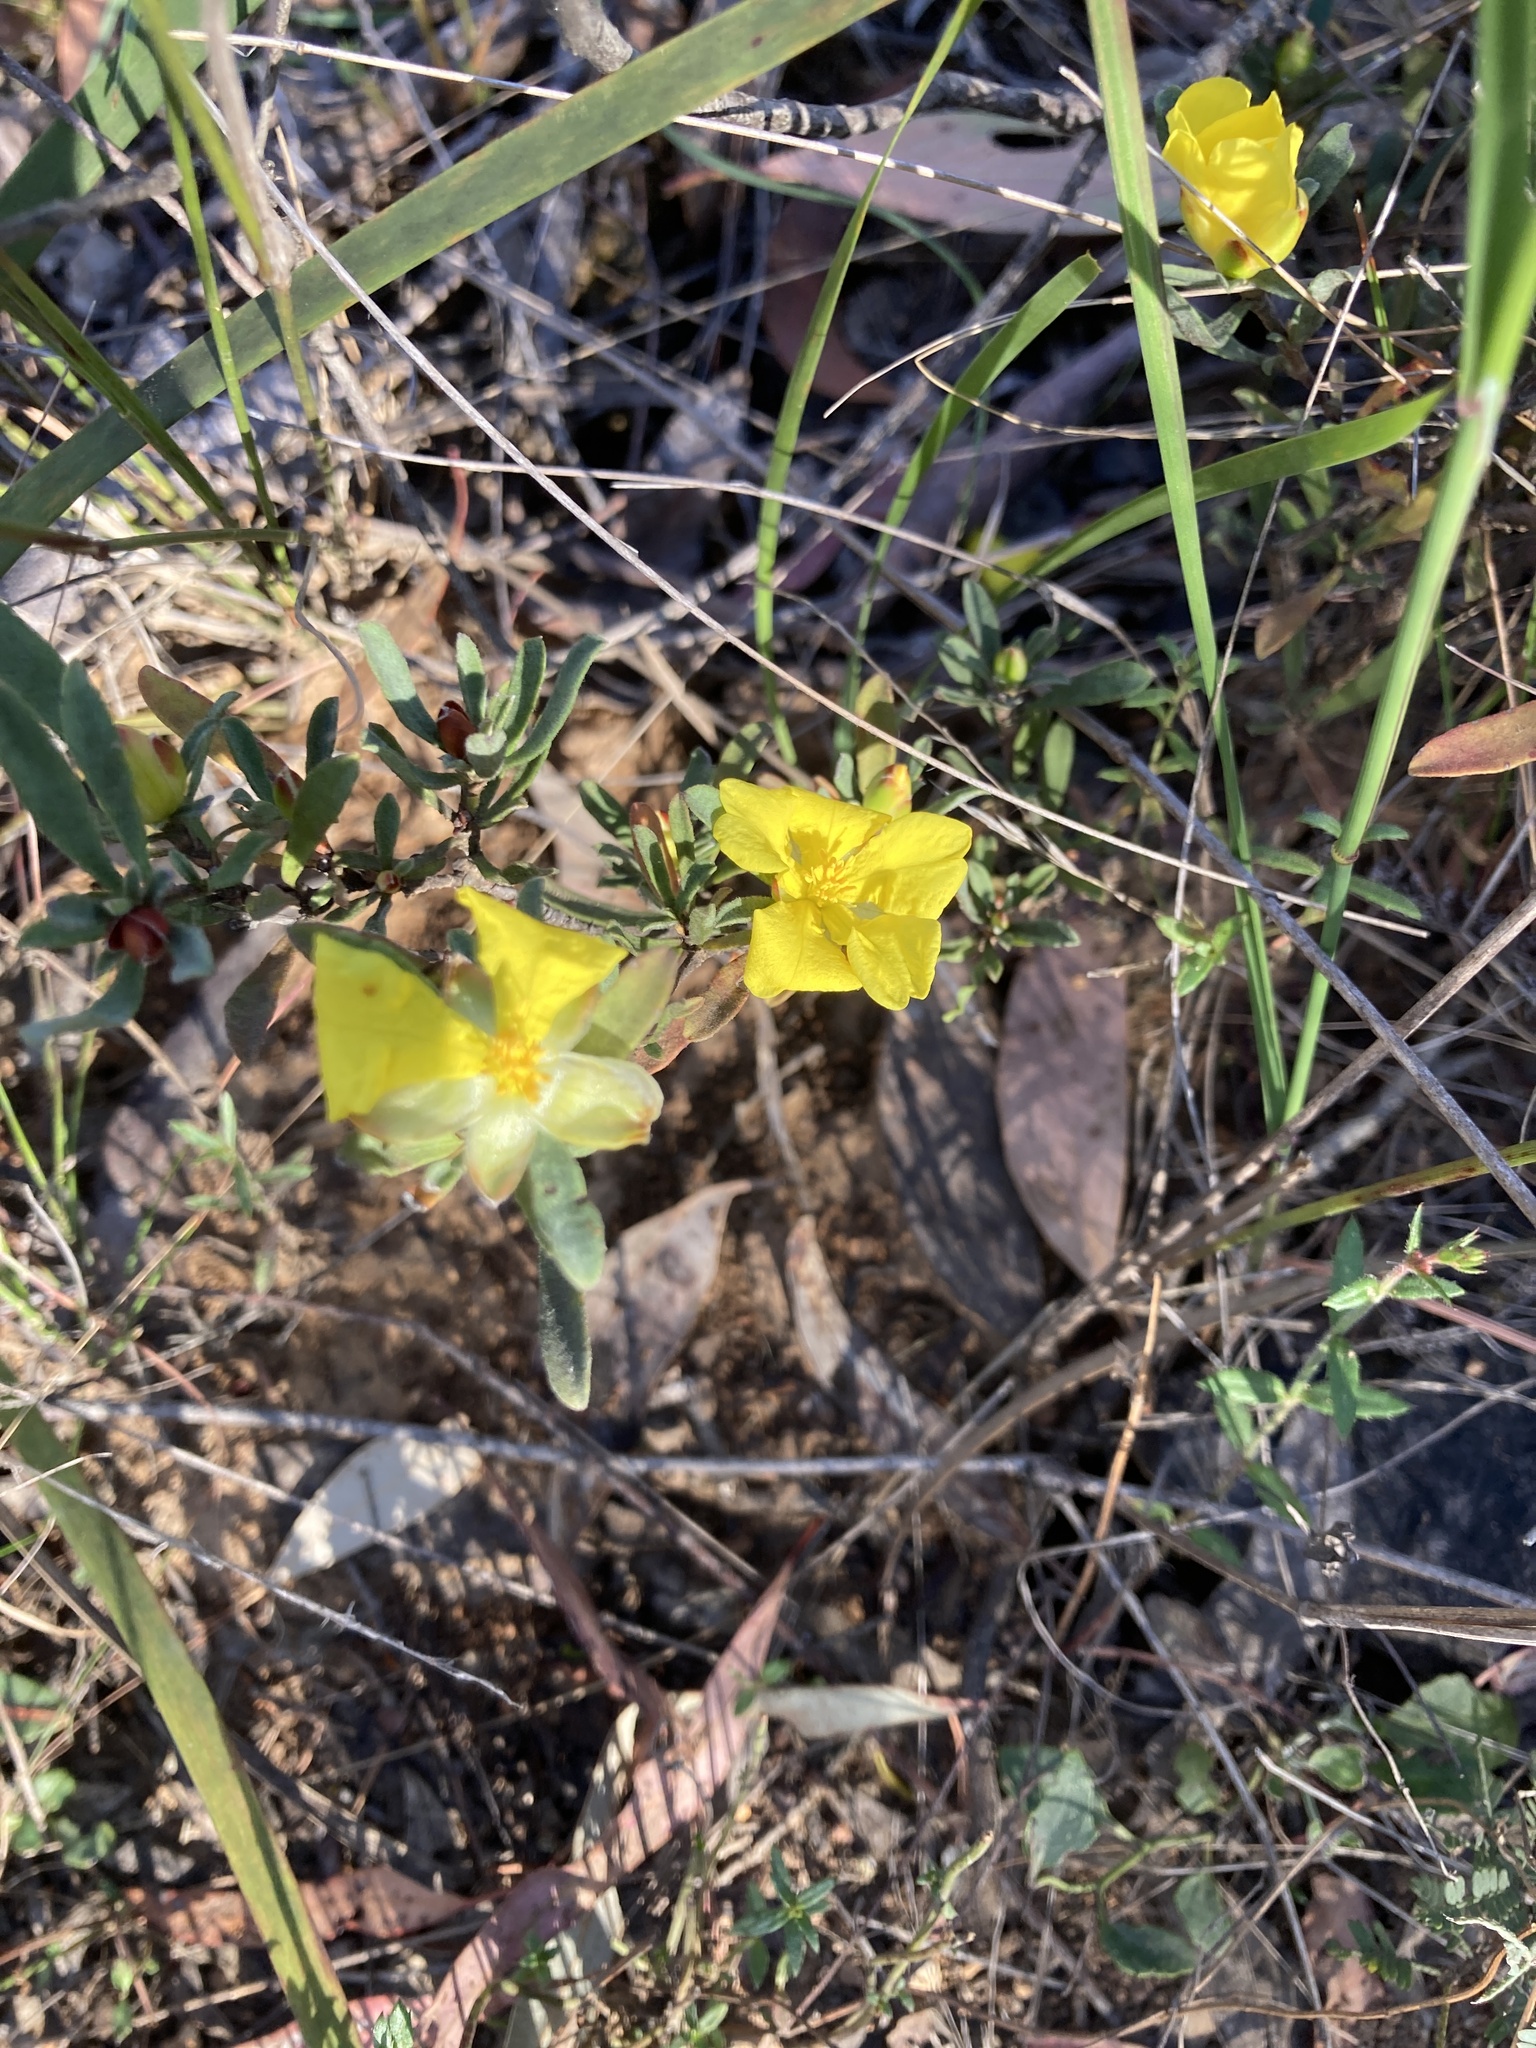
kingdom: Plantae
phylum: Tracheophyta
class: Magnoliopsida
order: Dilleniales
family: Dilleniaceae
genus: Hibbertia
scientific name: Hibbertia obtusifolia
